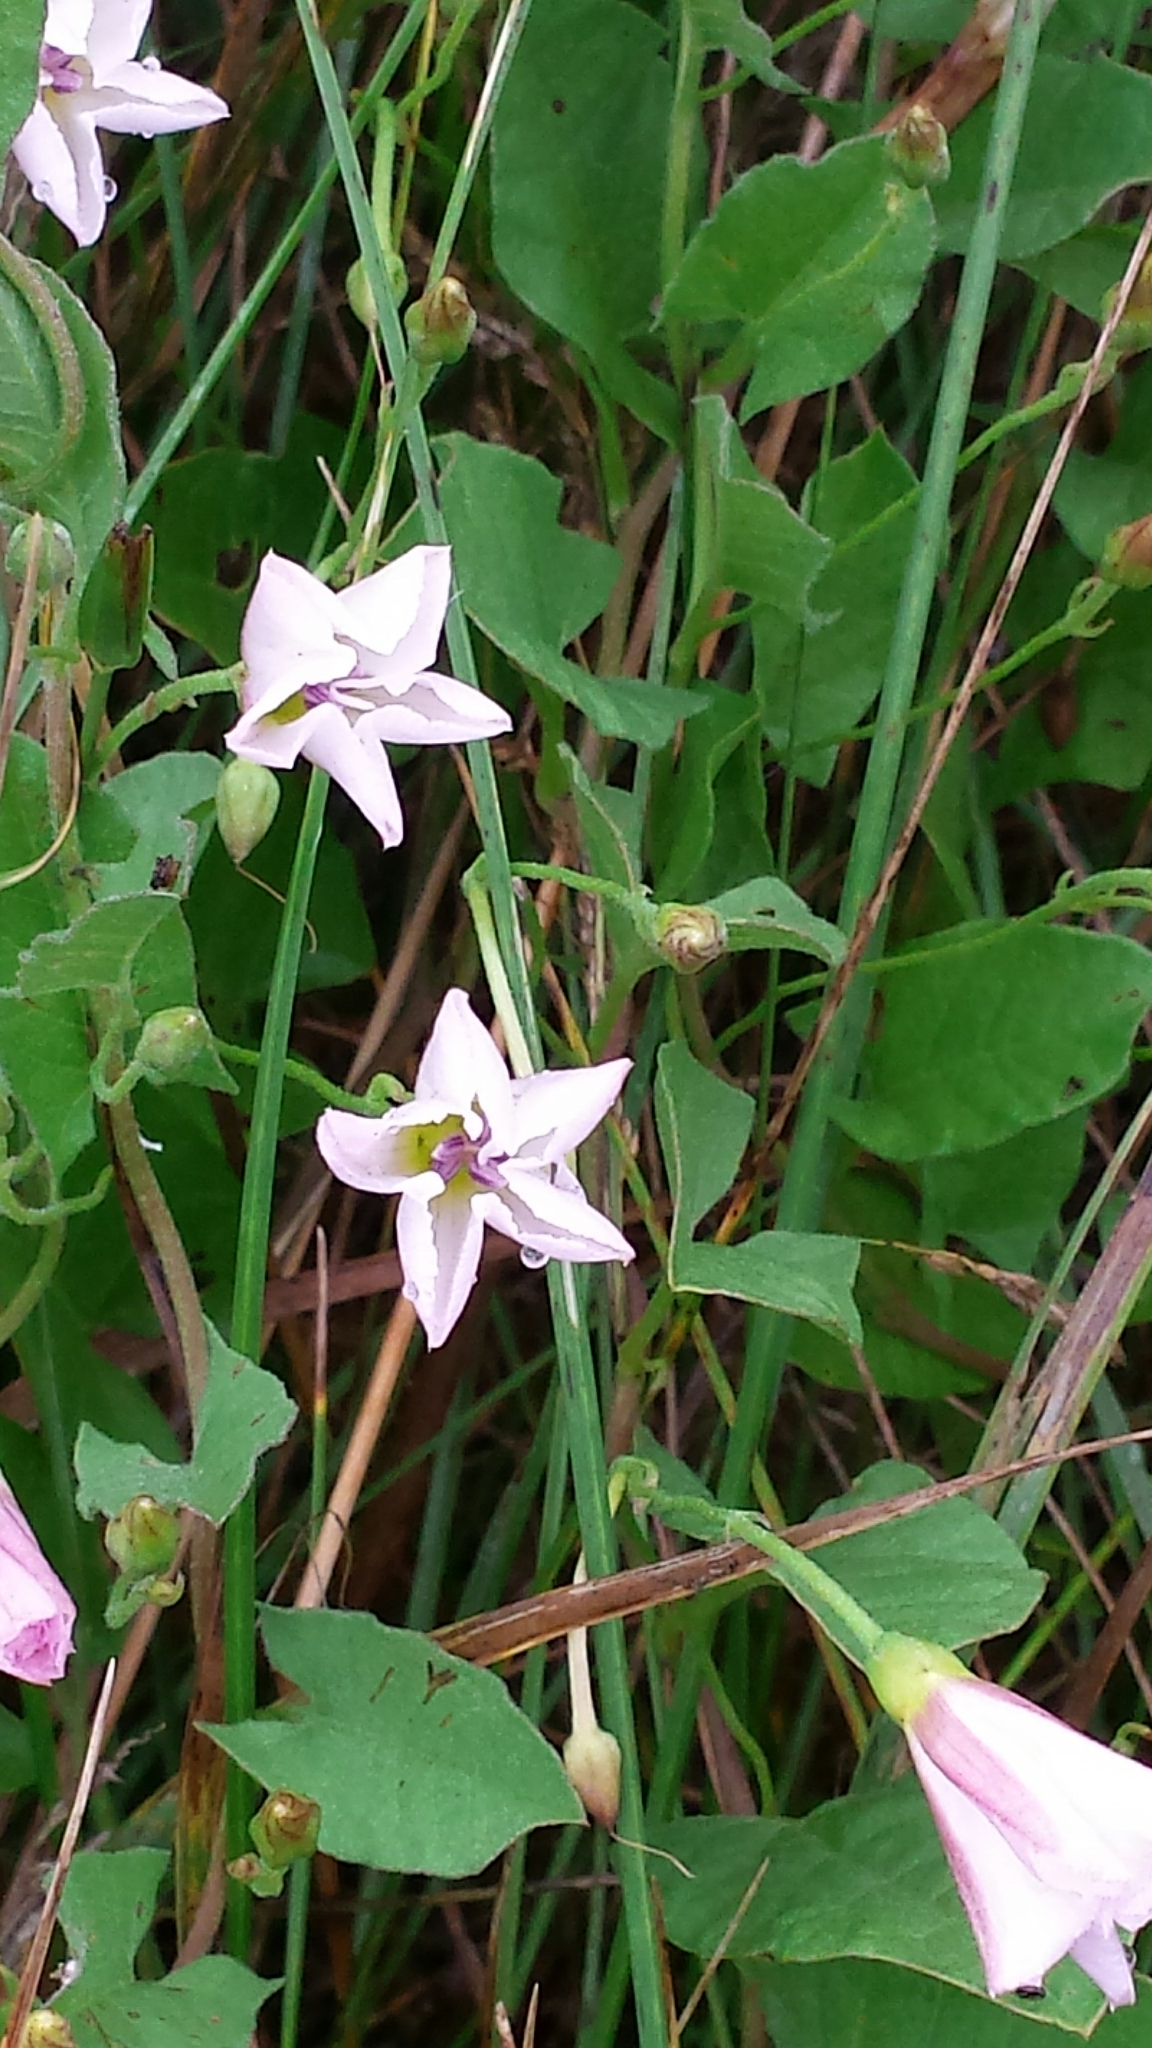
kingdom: Plantae
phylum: Tracheophyta
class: Magnoliopsida
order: Solanales
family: Convolvulaceae
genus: Convolvulus
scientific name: Convolvulus arvensis
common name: Field bindweed
